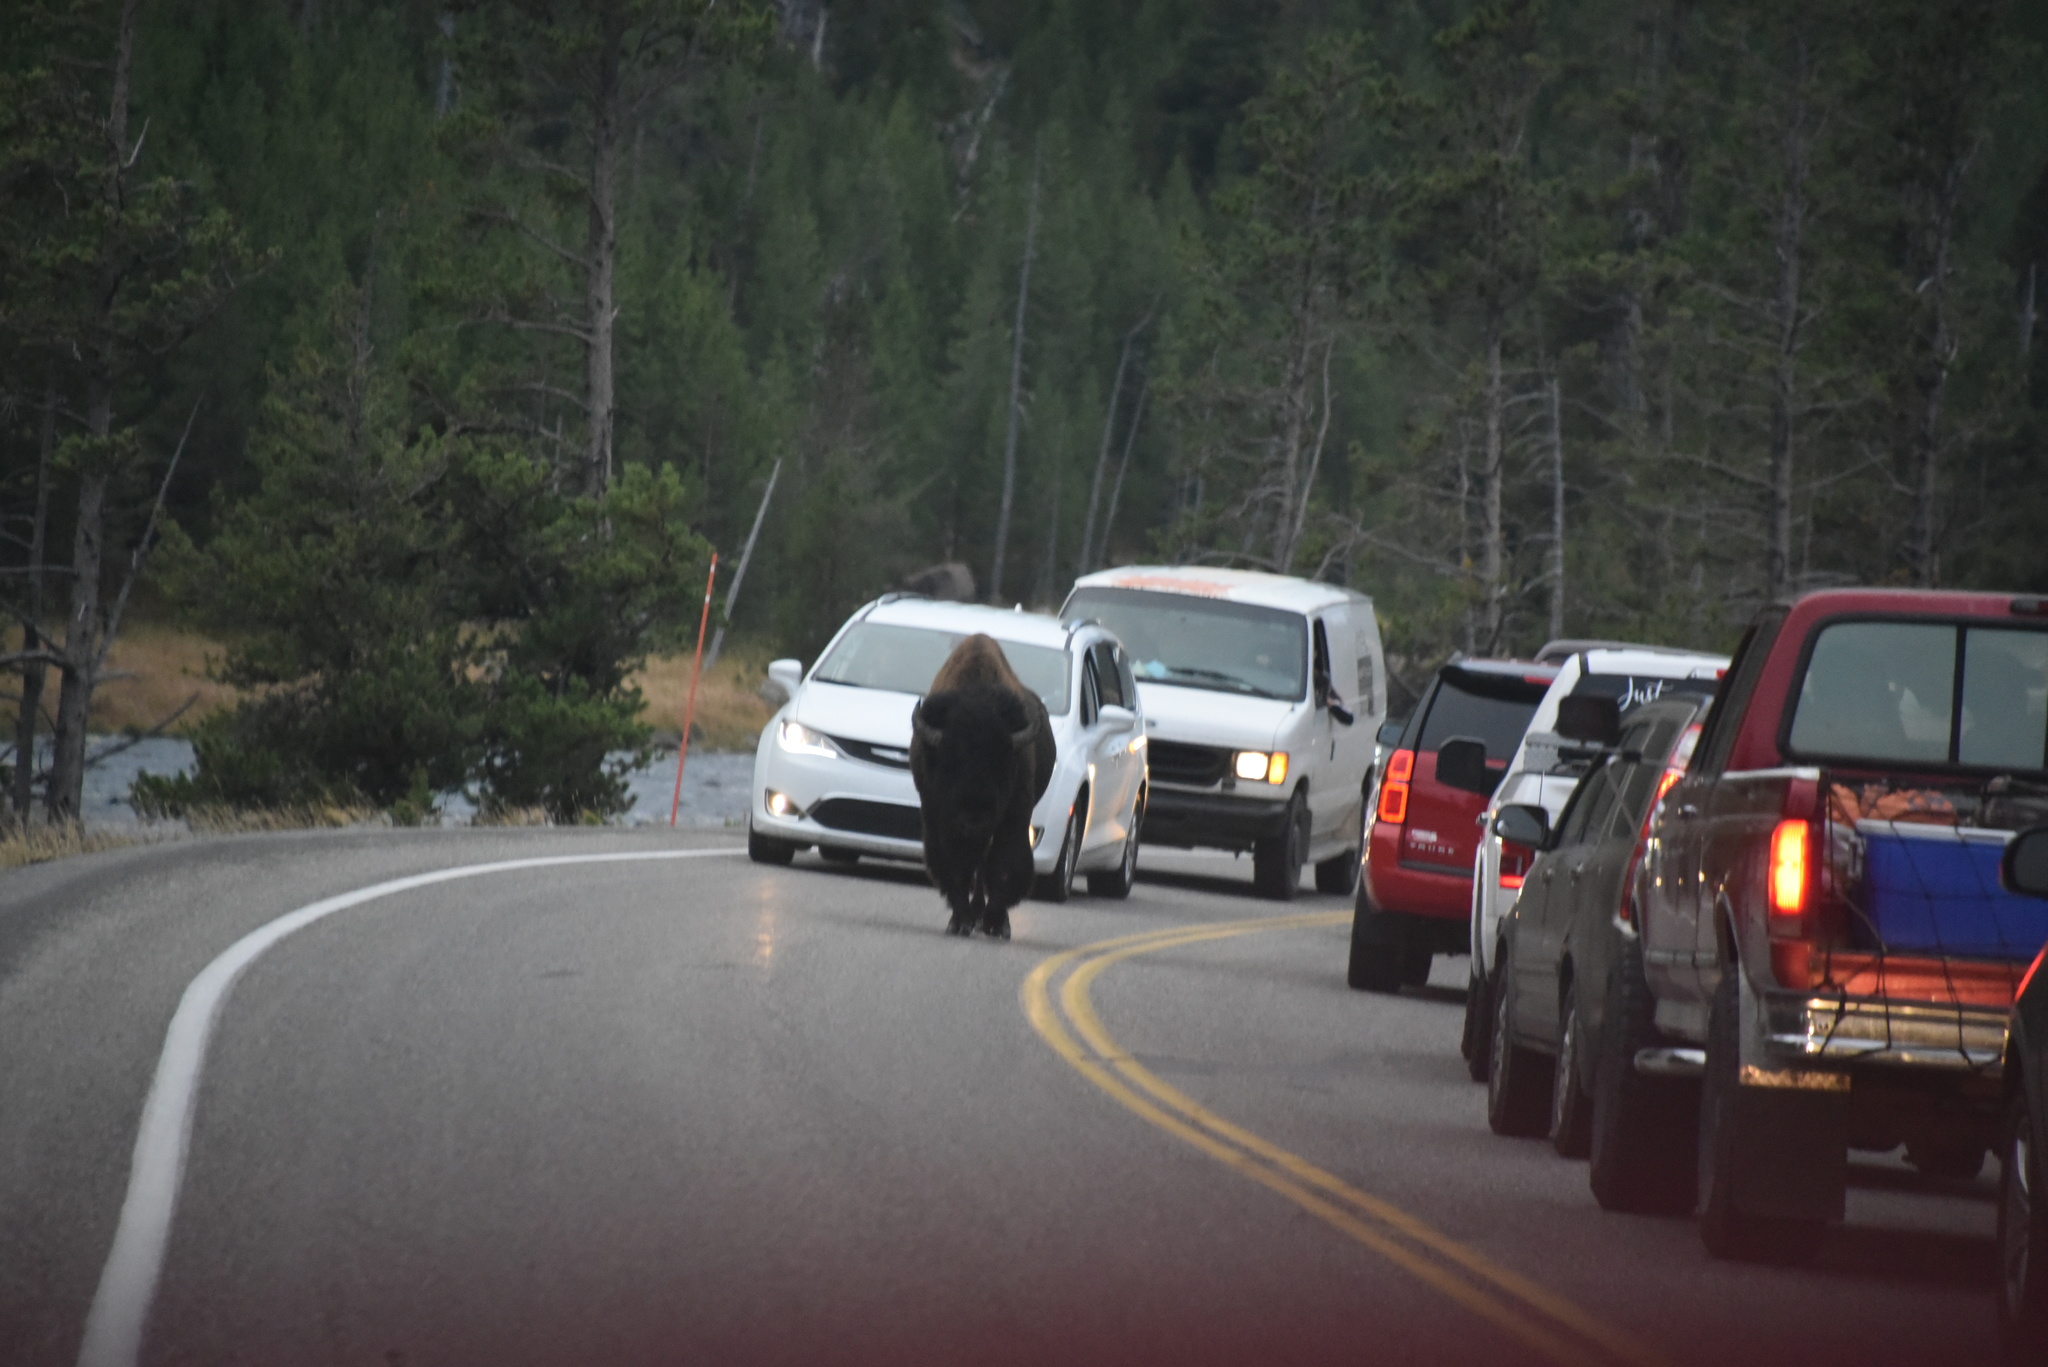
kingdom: Animalia
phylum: Chordata
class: Mammalia
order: Artiodactyla
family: Bovidae
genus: Bison
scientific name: Bison bison
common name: American bison
